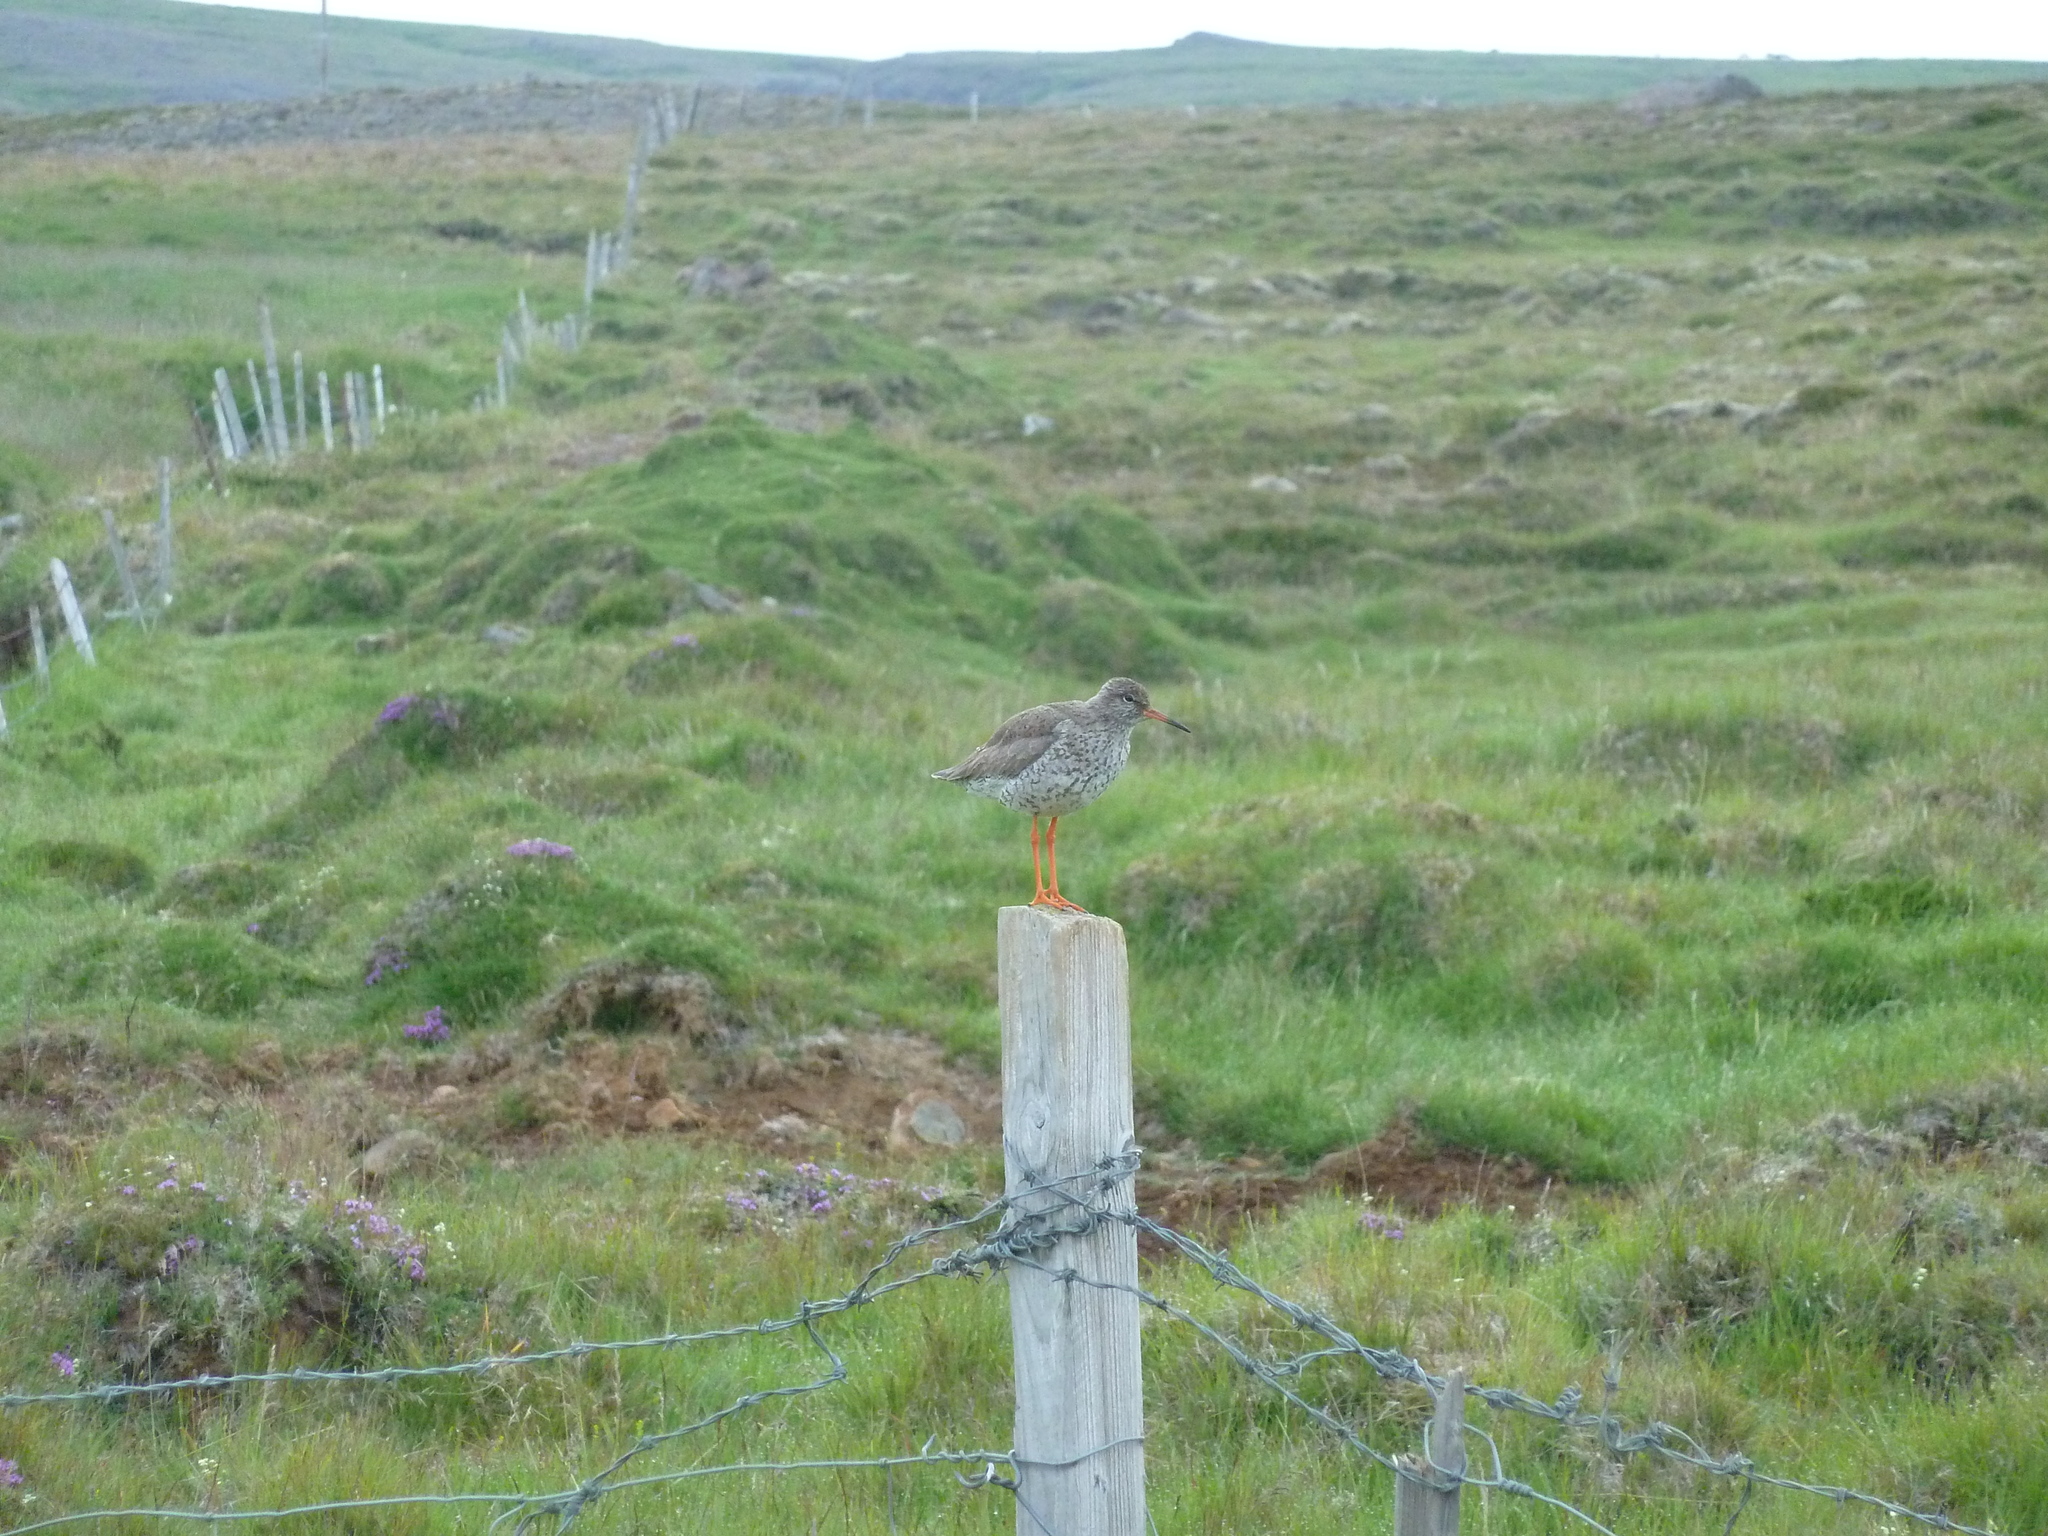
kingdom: Animalia
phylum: Chordata
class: Aves
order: Charadriiformes
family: Scolopacidae
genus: Tringa
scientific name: Tringa totanus
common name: Common redshank
